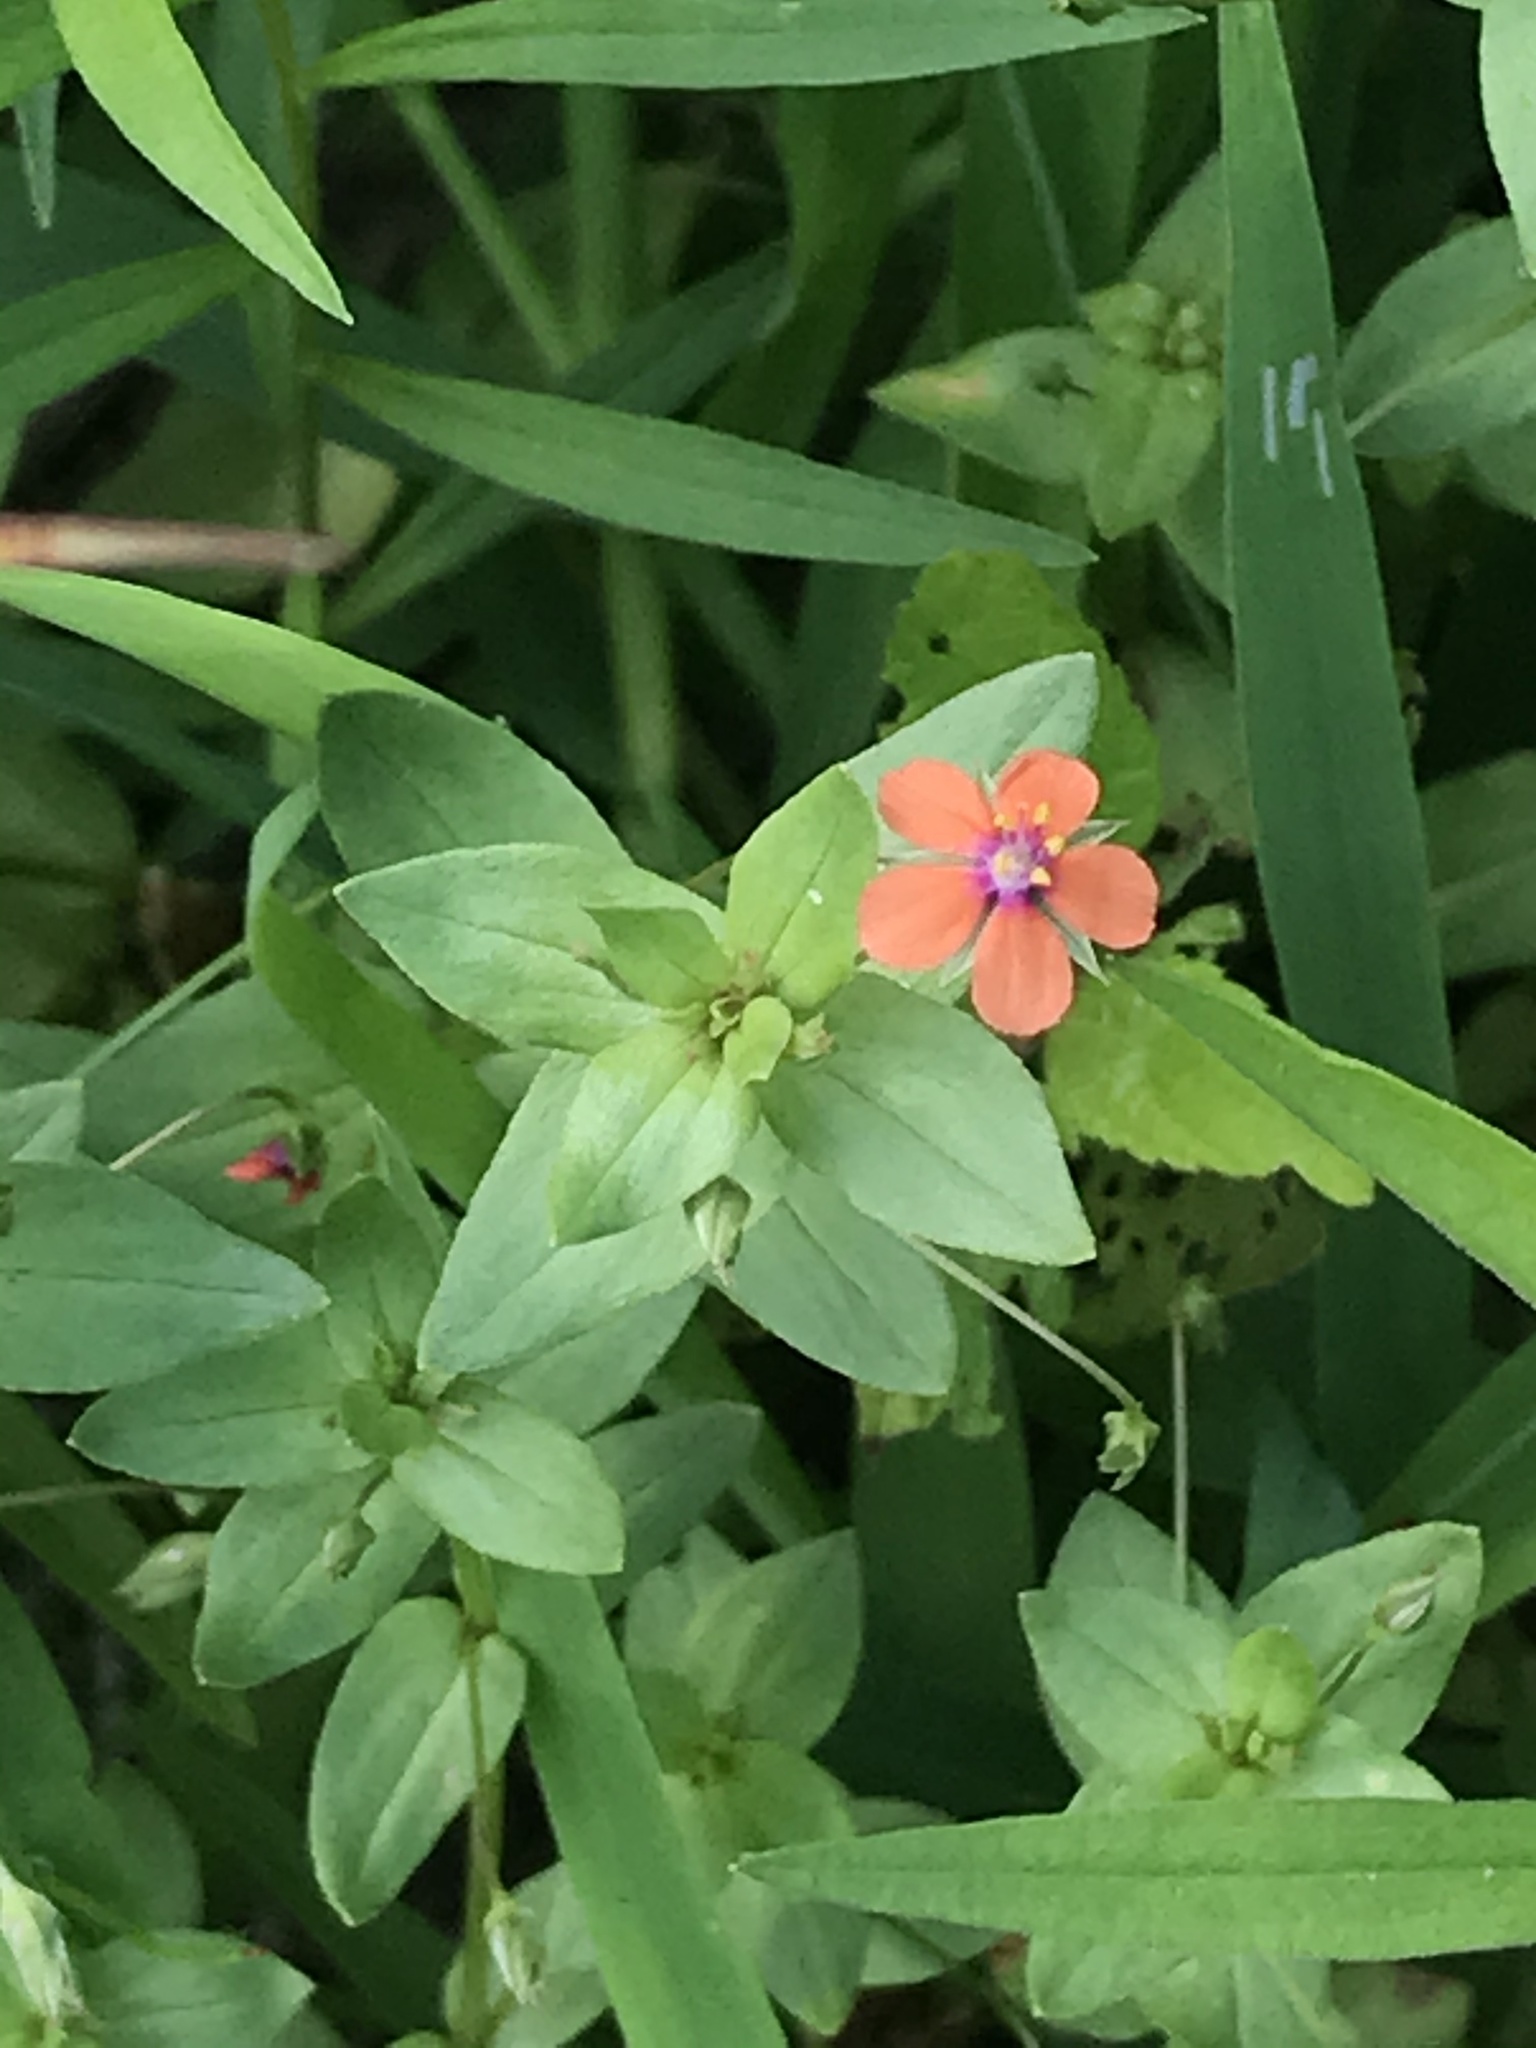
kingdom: Plantae
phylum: Tracheophyta
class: Magnoliopsida
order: Ericales
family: Primulaceae
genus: Lysimachia
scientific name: Lysimachia arvensis
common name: Scarlet pimpernel
